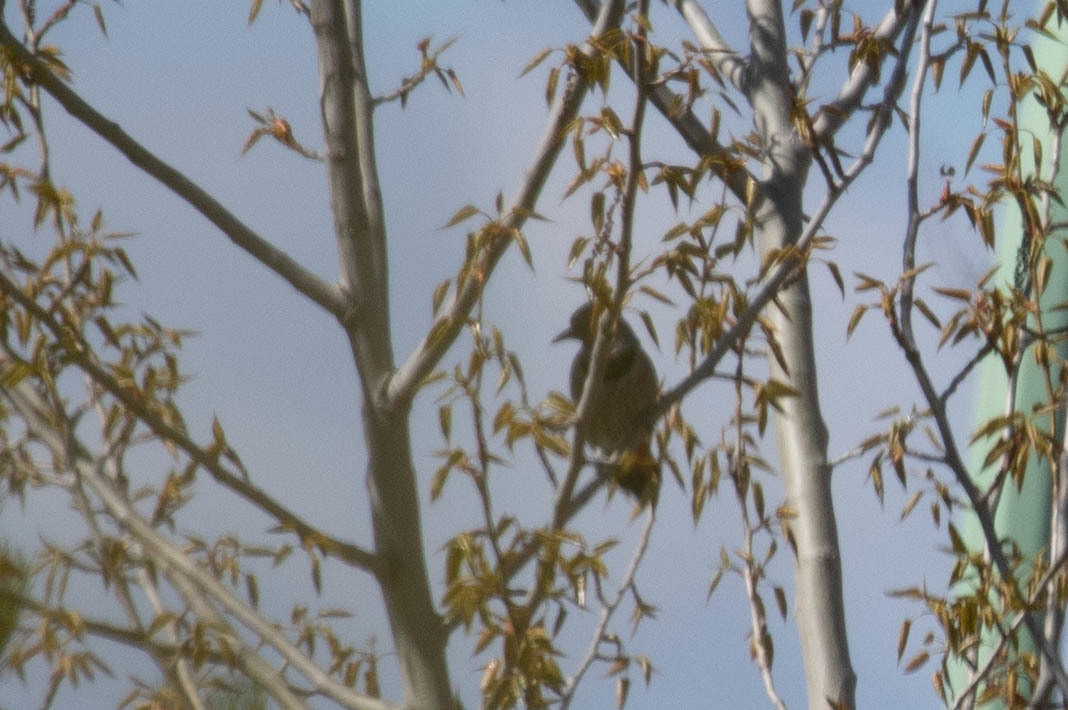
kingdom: Animalia
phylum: Chordata
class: Aves
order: Piciformes
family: Picidae
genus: Colaptes
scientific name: Colaptes auratus
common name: Northern flicker
